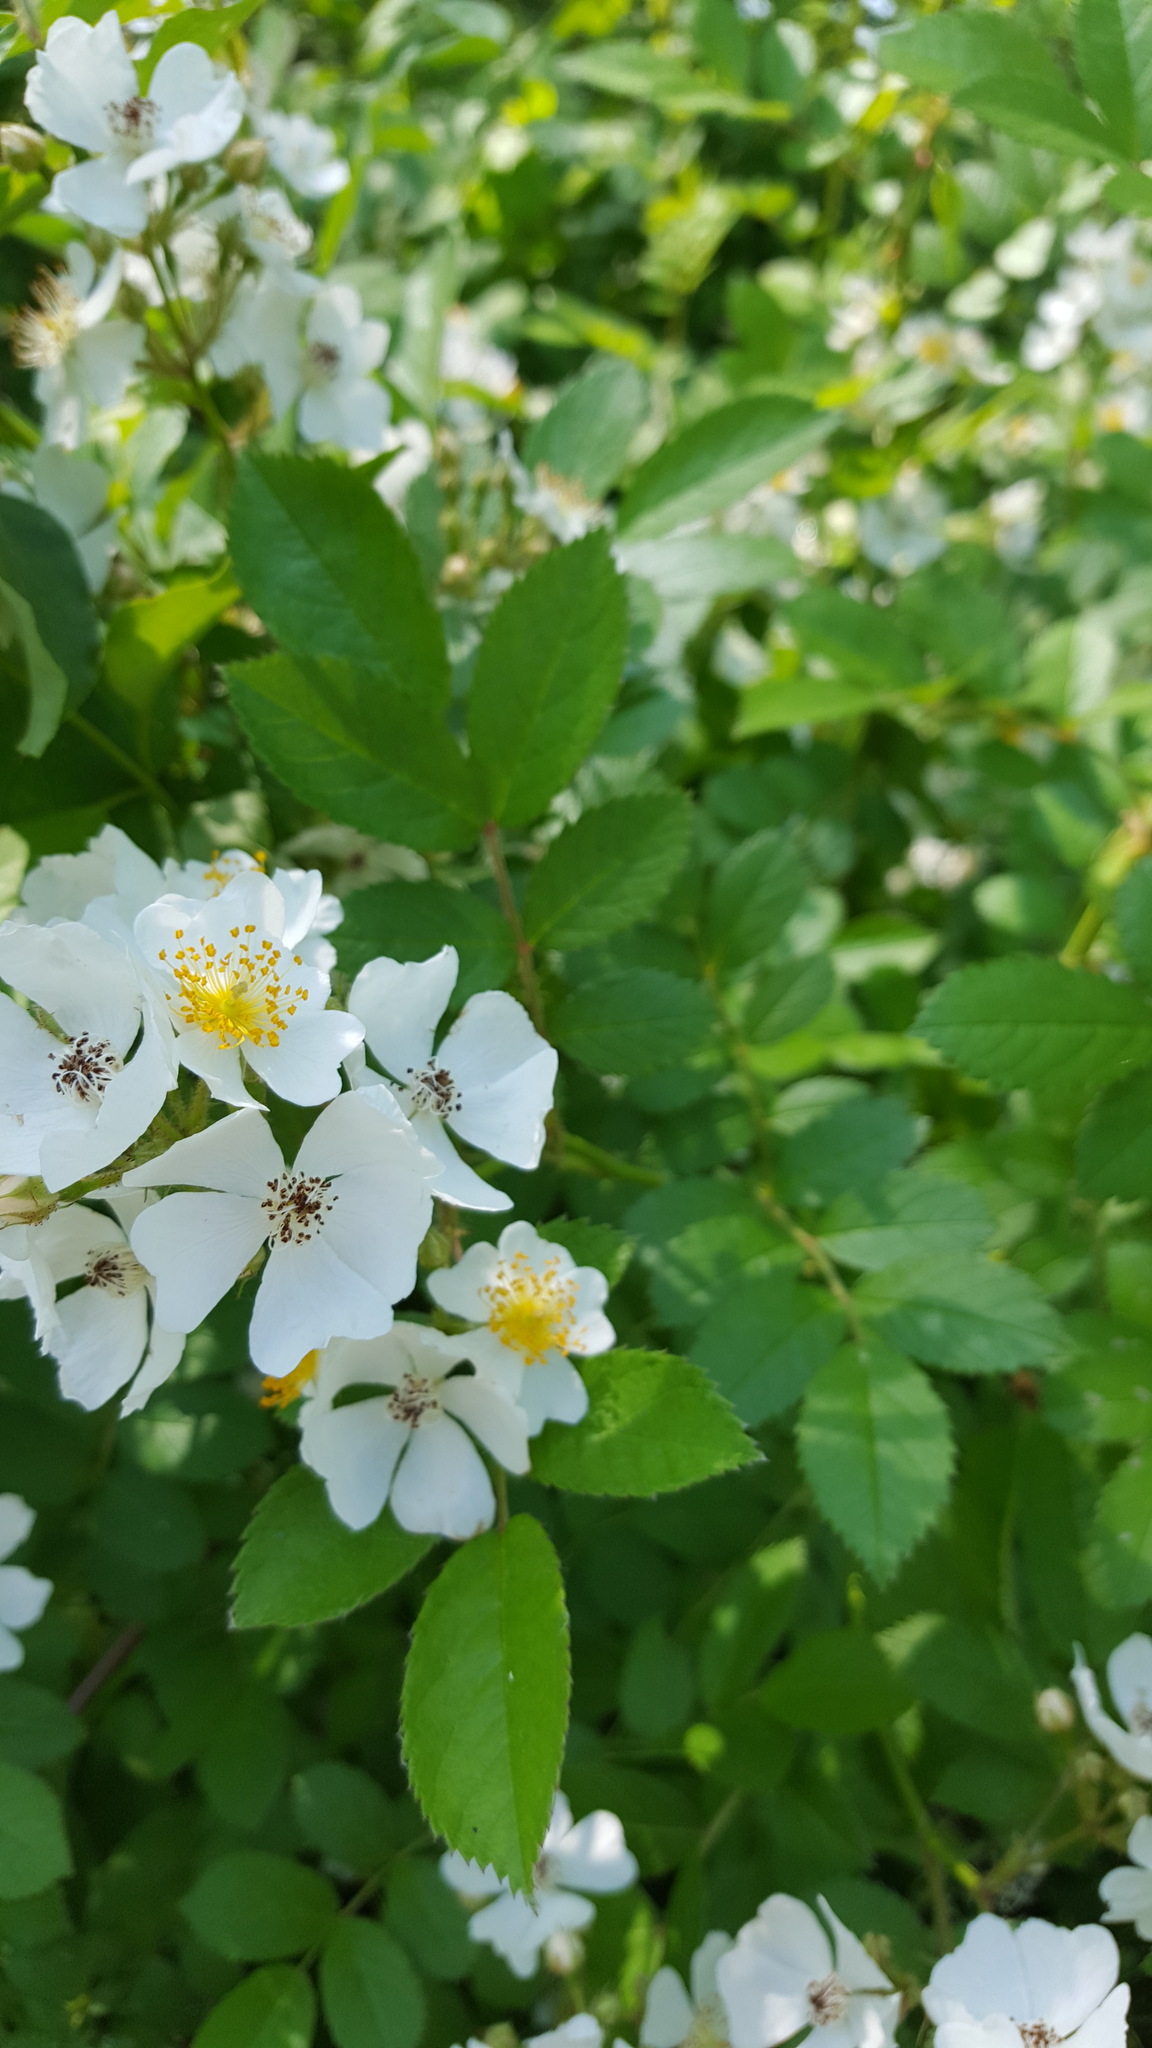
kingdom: Plantae
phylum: Tracheophyta
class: Magnoliopsida
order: Rosales
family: Rosaceae
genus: Rosa
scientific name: Rosa multiflora
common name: Multiflora rose
